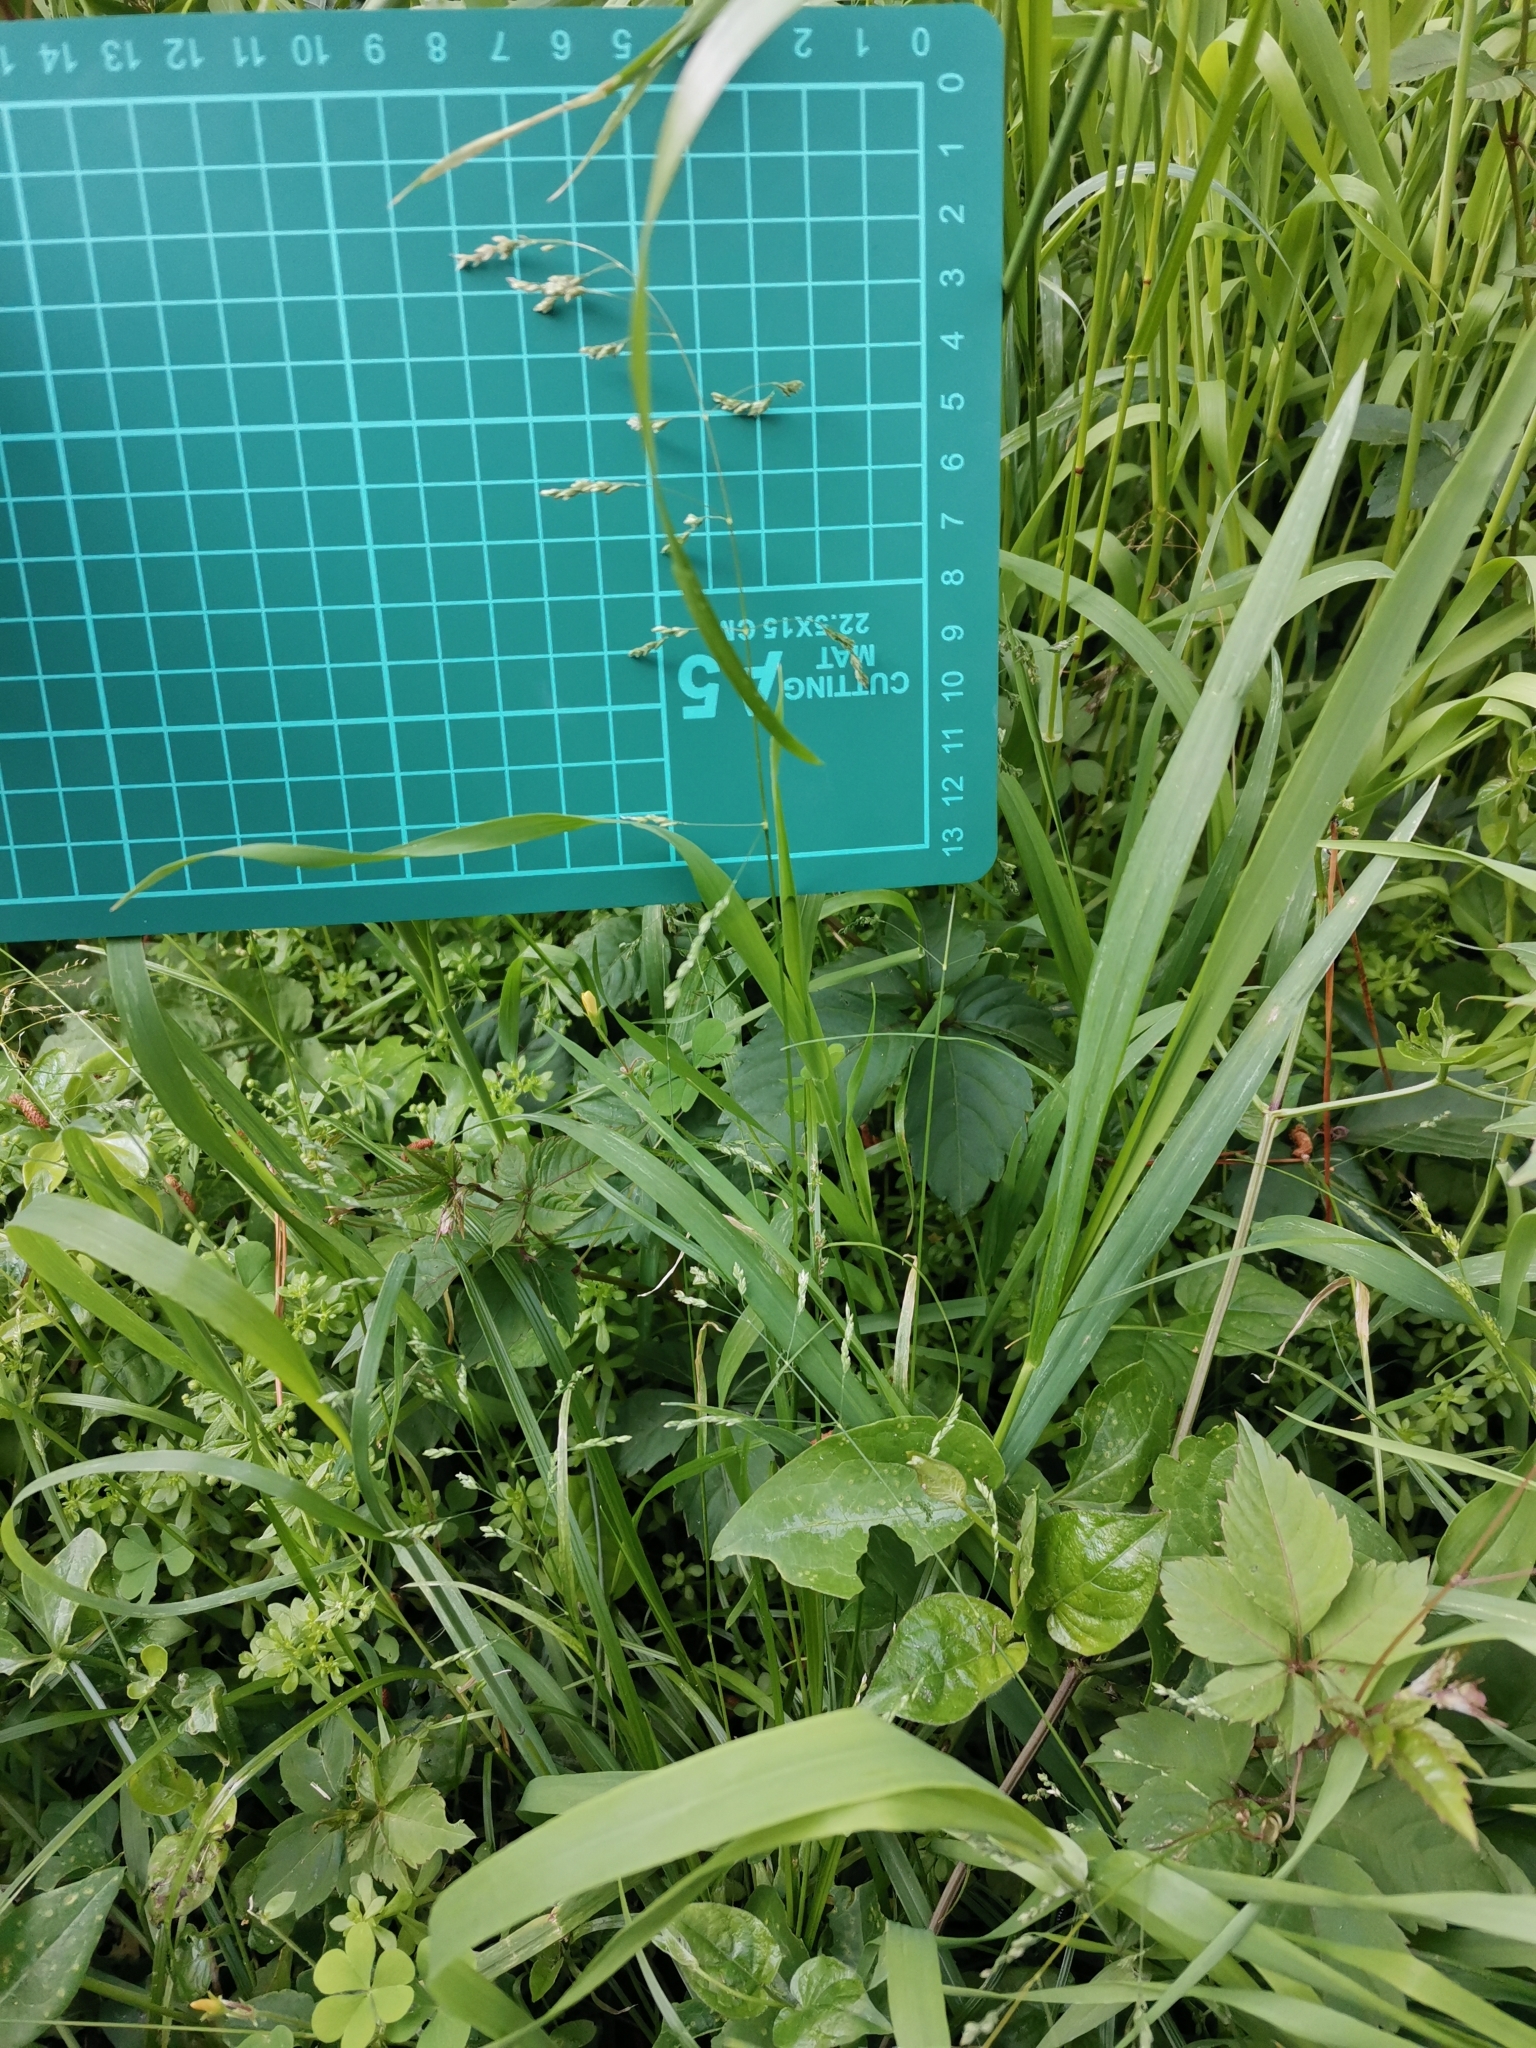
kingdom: Plantae
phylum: Tracheophyta
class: Liliopsida
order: Poales
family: Poaceae
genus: Poa
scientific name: Poa acroleuca
